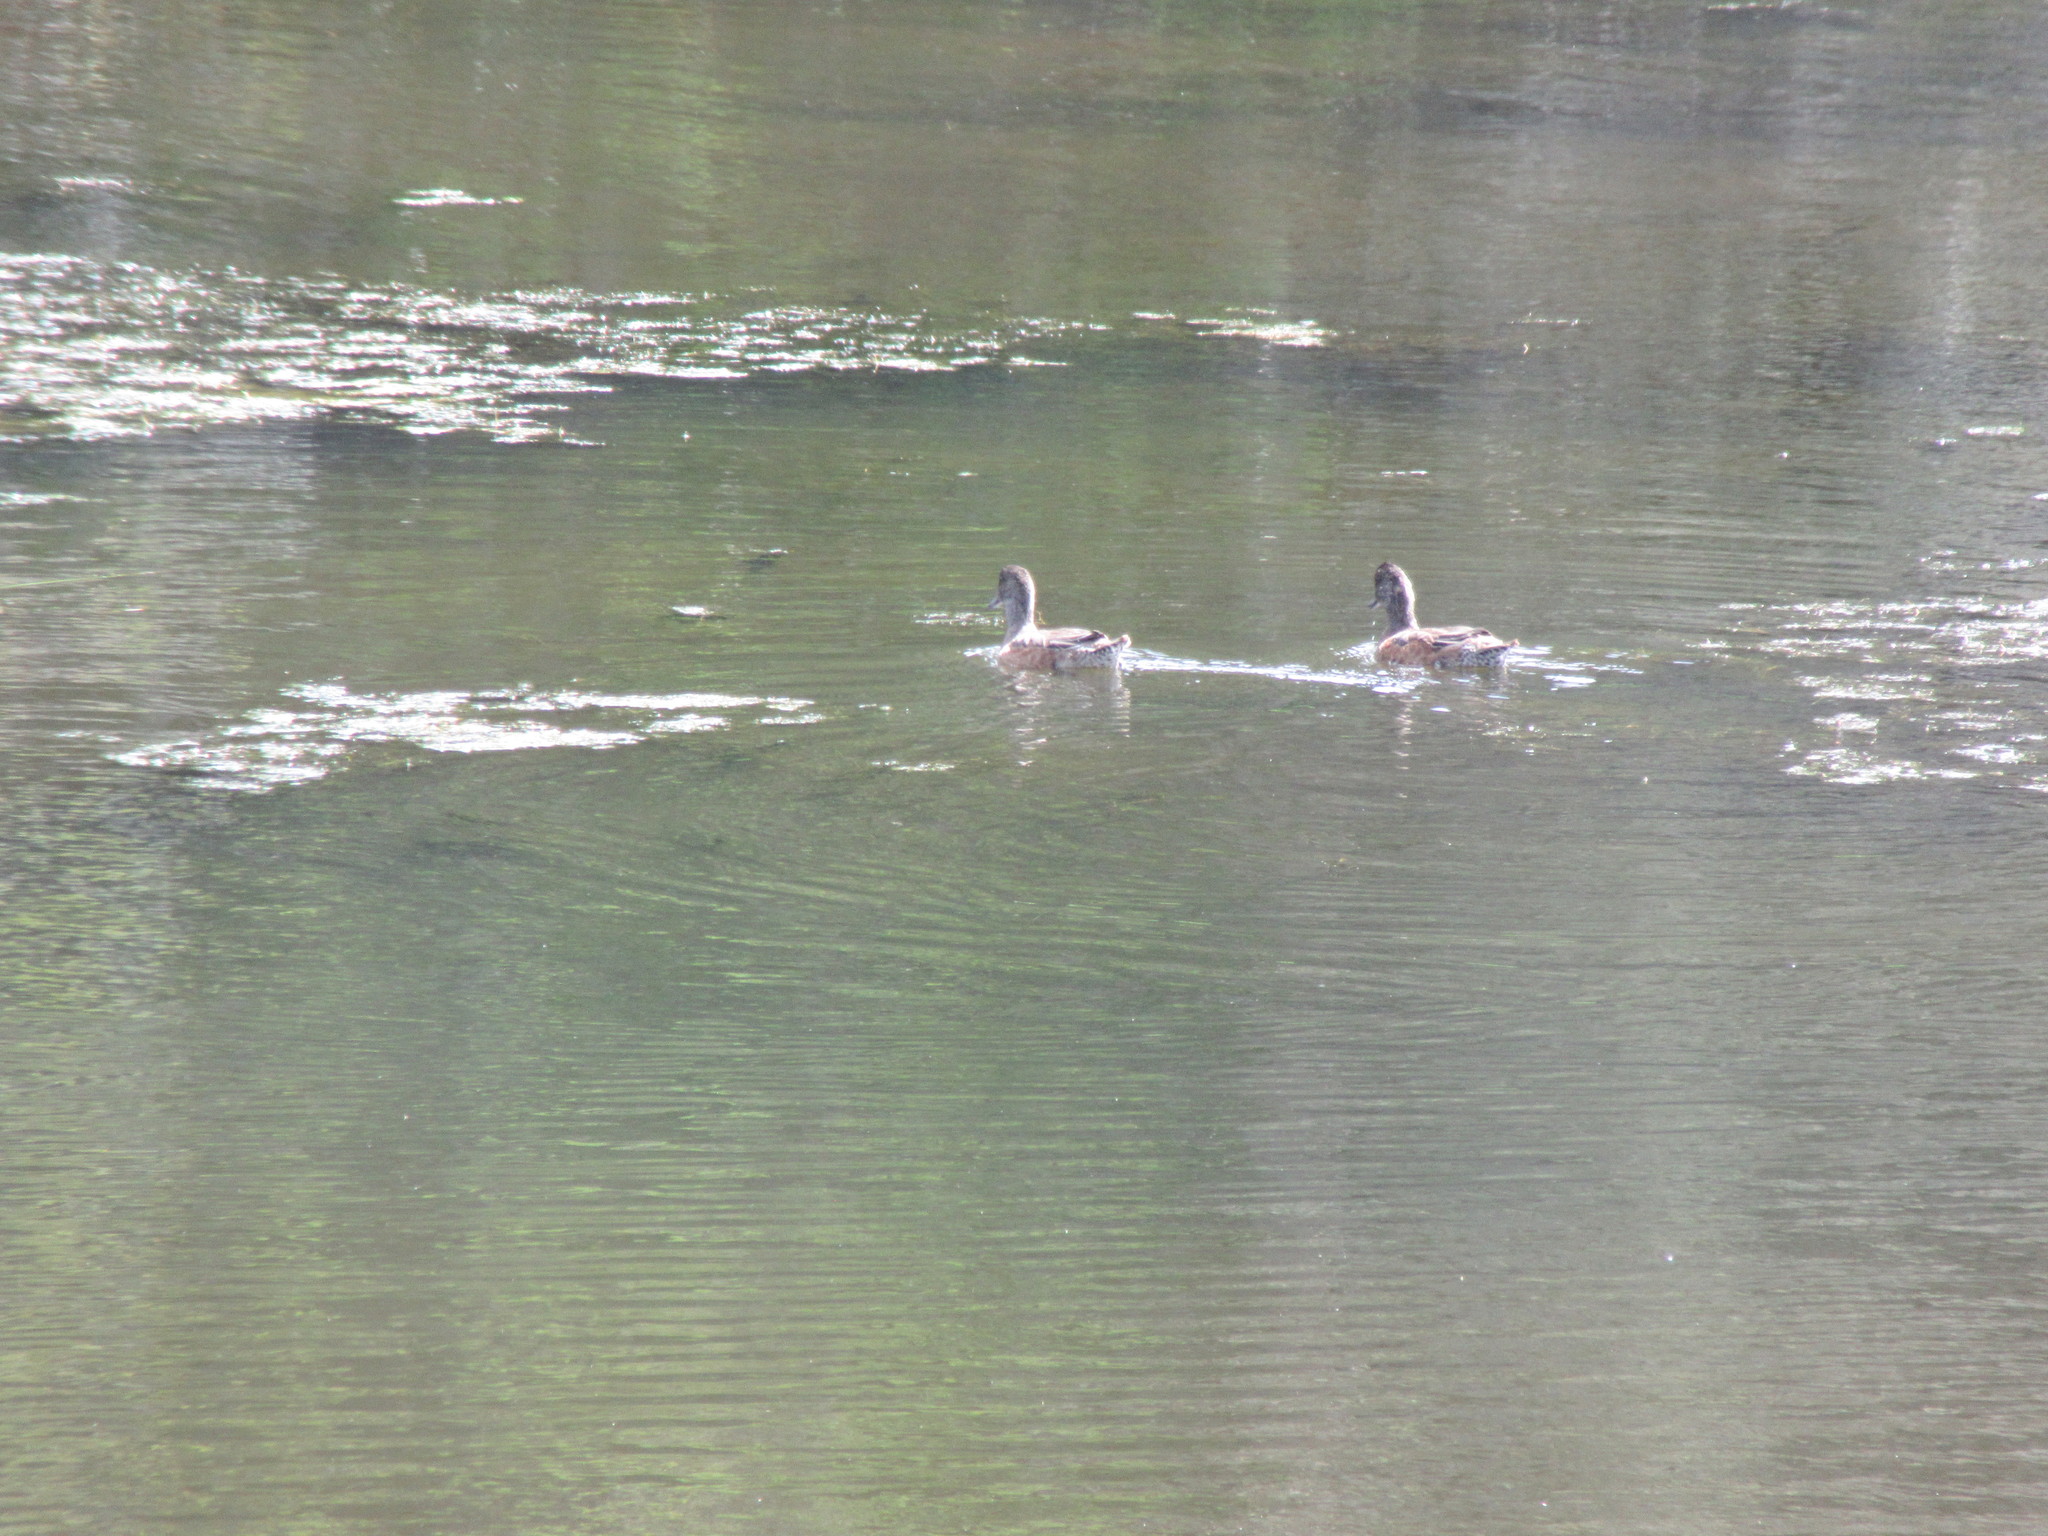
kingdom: Animalia
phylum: Chordata
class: Aves
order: Anseriformes
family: Anatidae
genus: Mareca
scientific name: Mareca americana
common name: American wigeon
